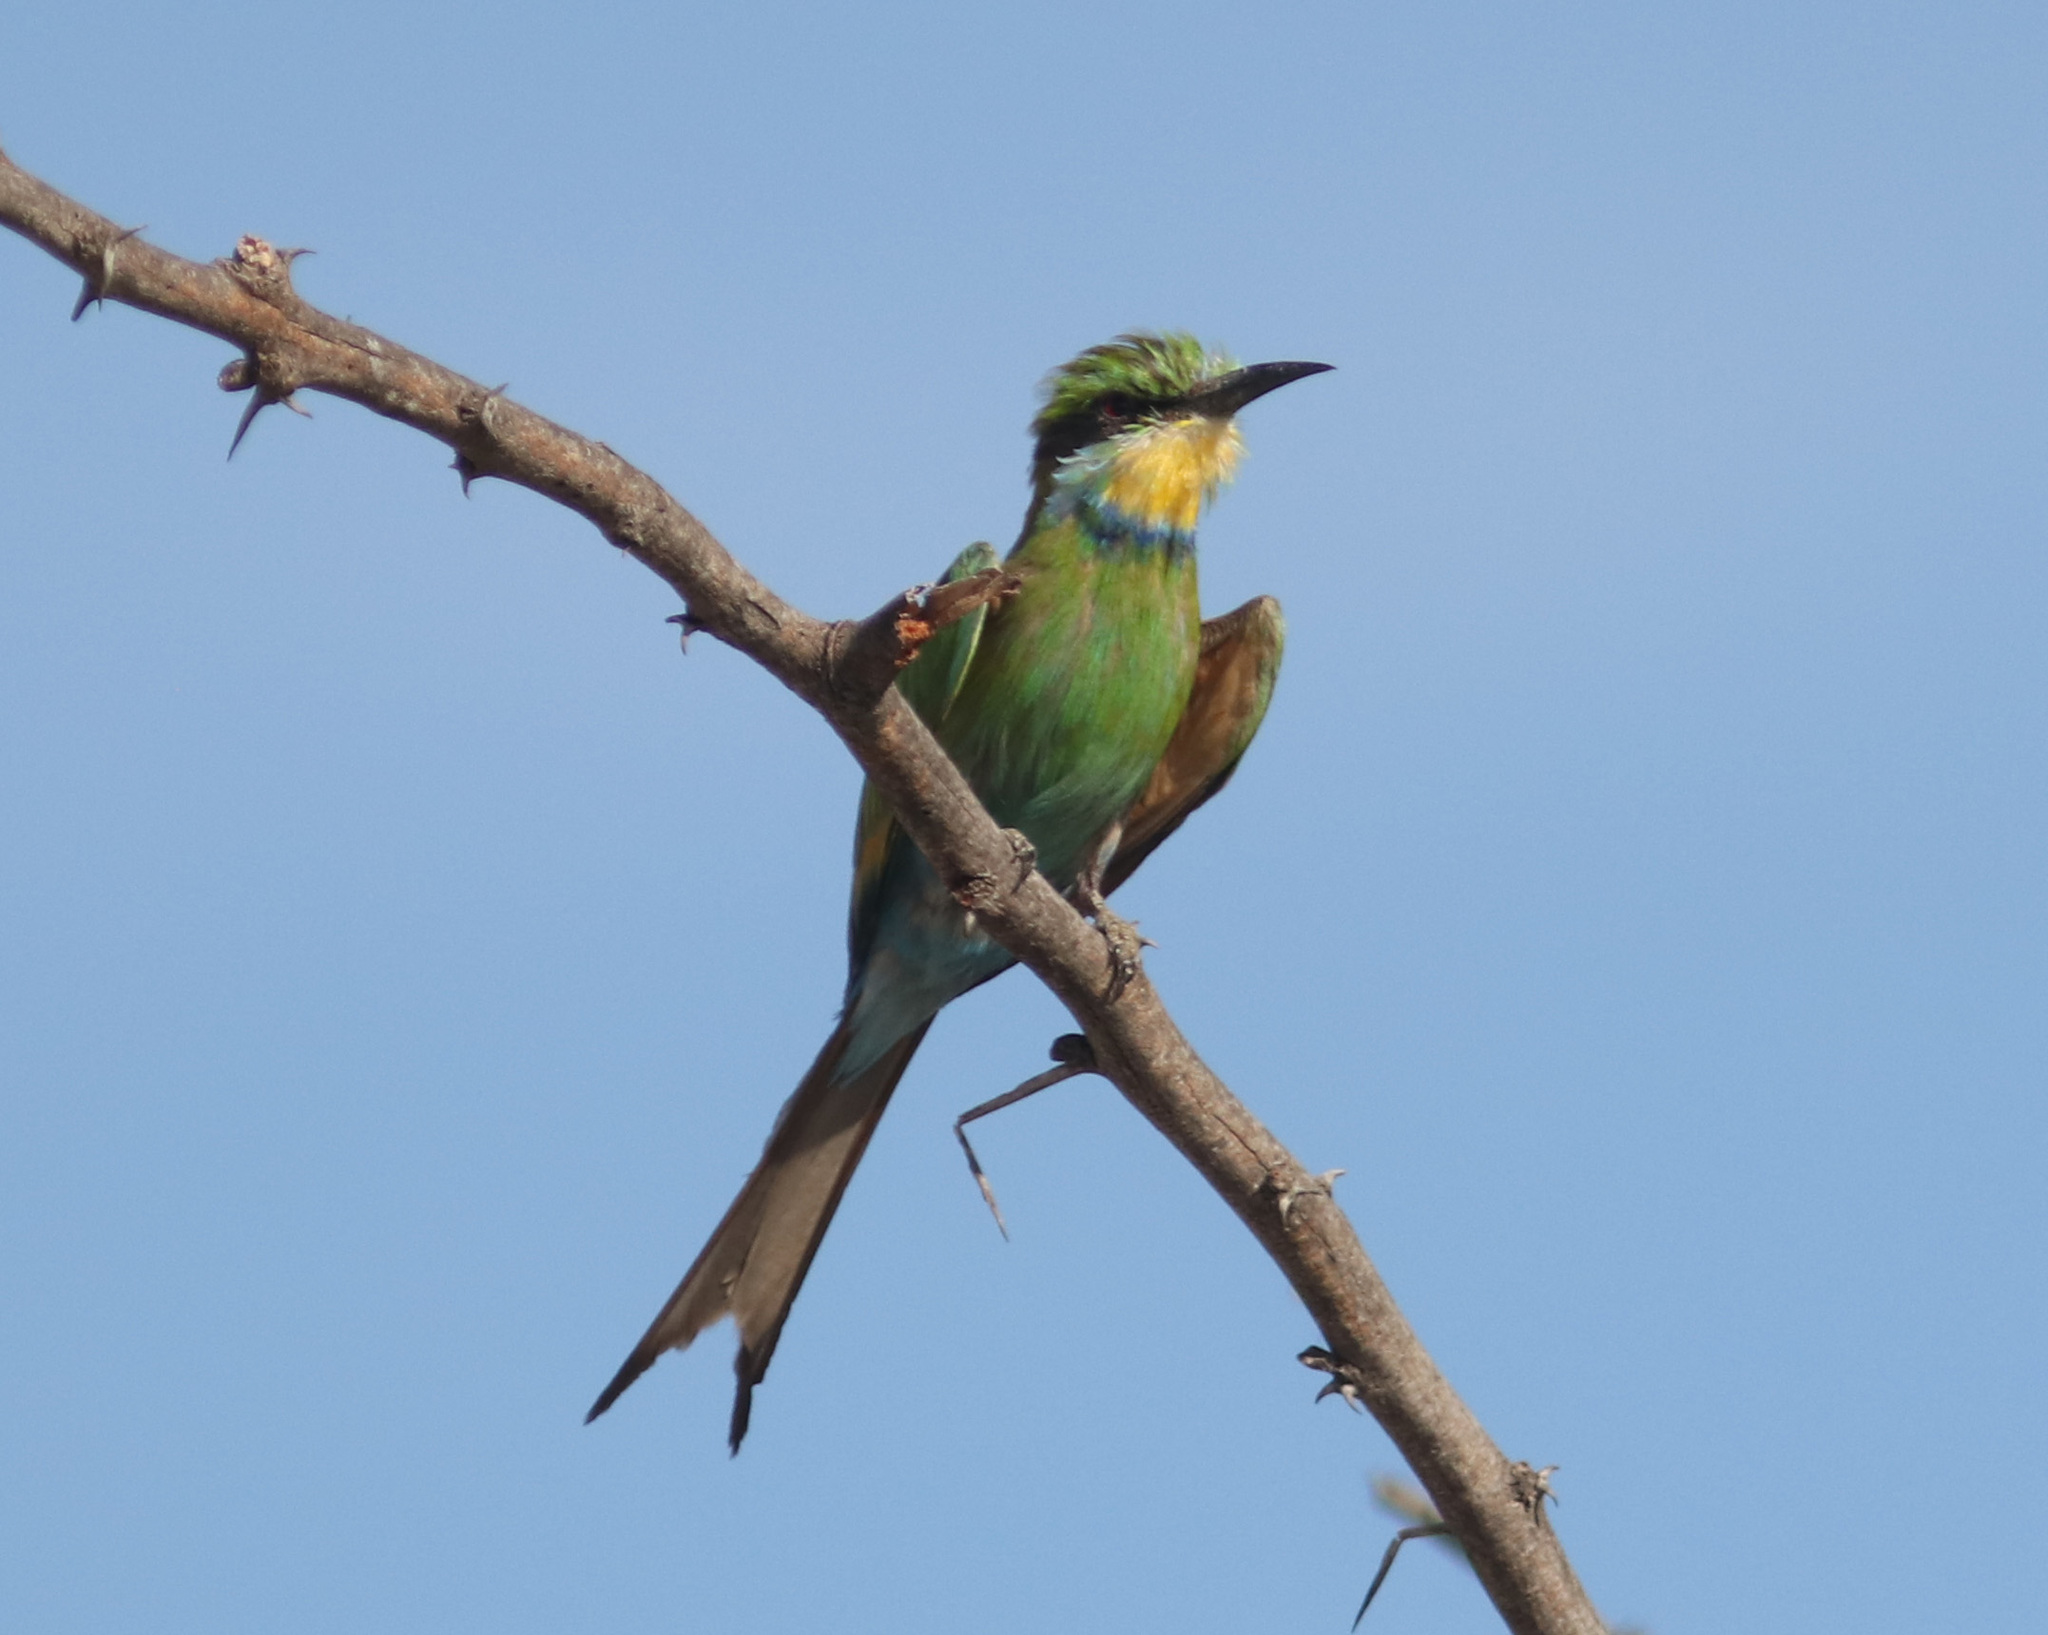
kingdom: Animalia
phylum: Chordata
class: Aves
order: Coraciiformes
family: Meropidae
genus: Merops
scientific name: Merops hirundineus
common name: Swallow-tailed bee-eater
